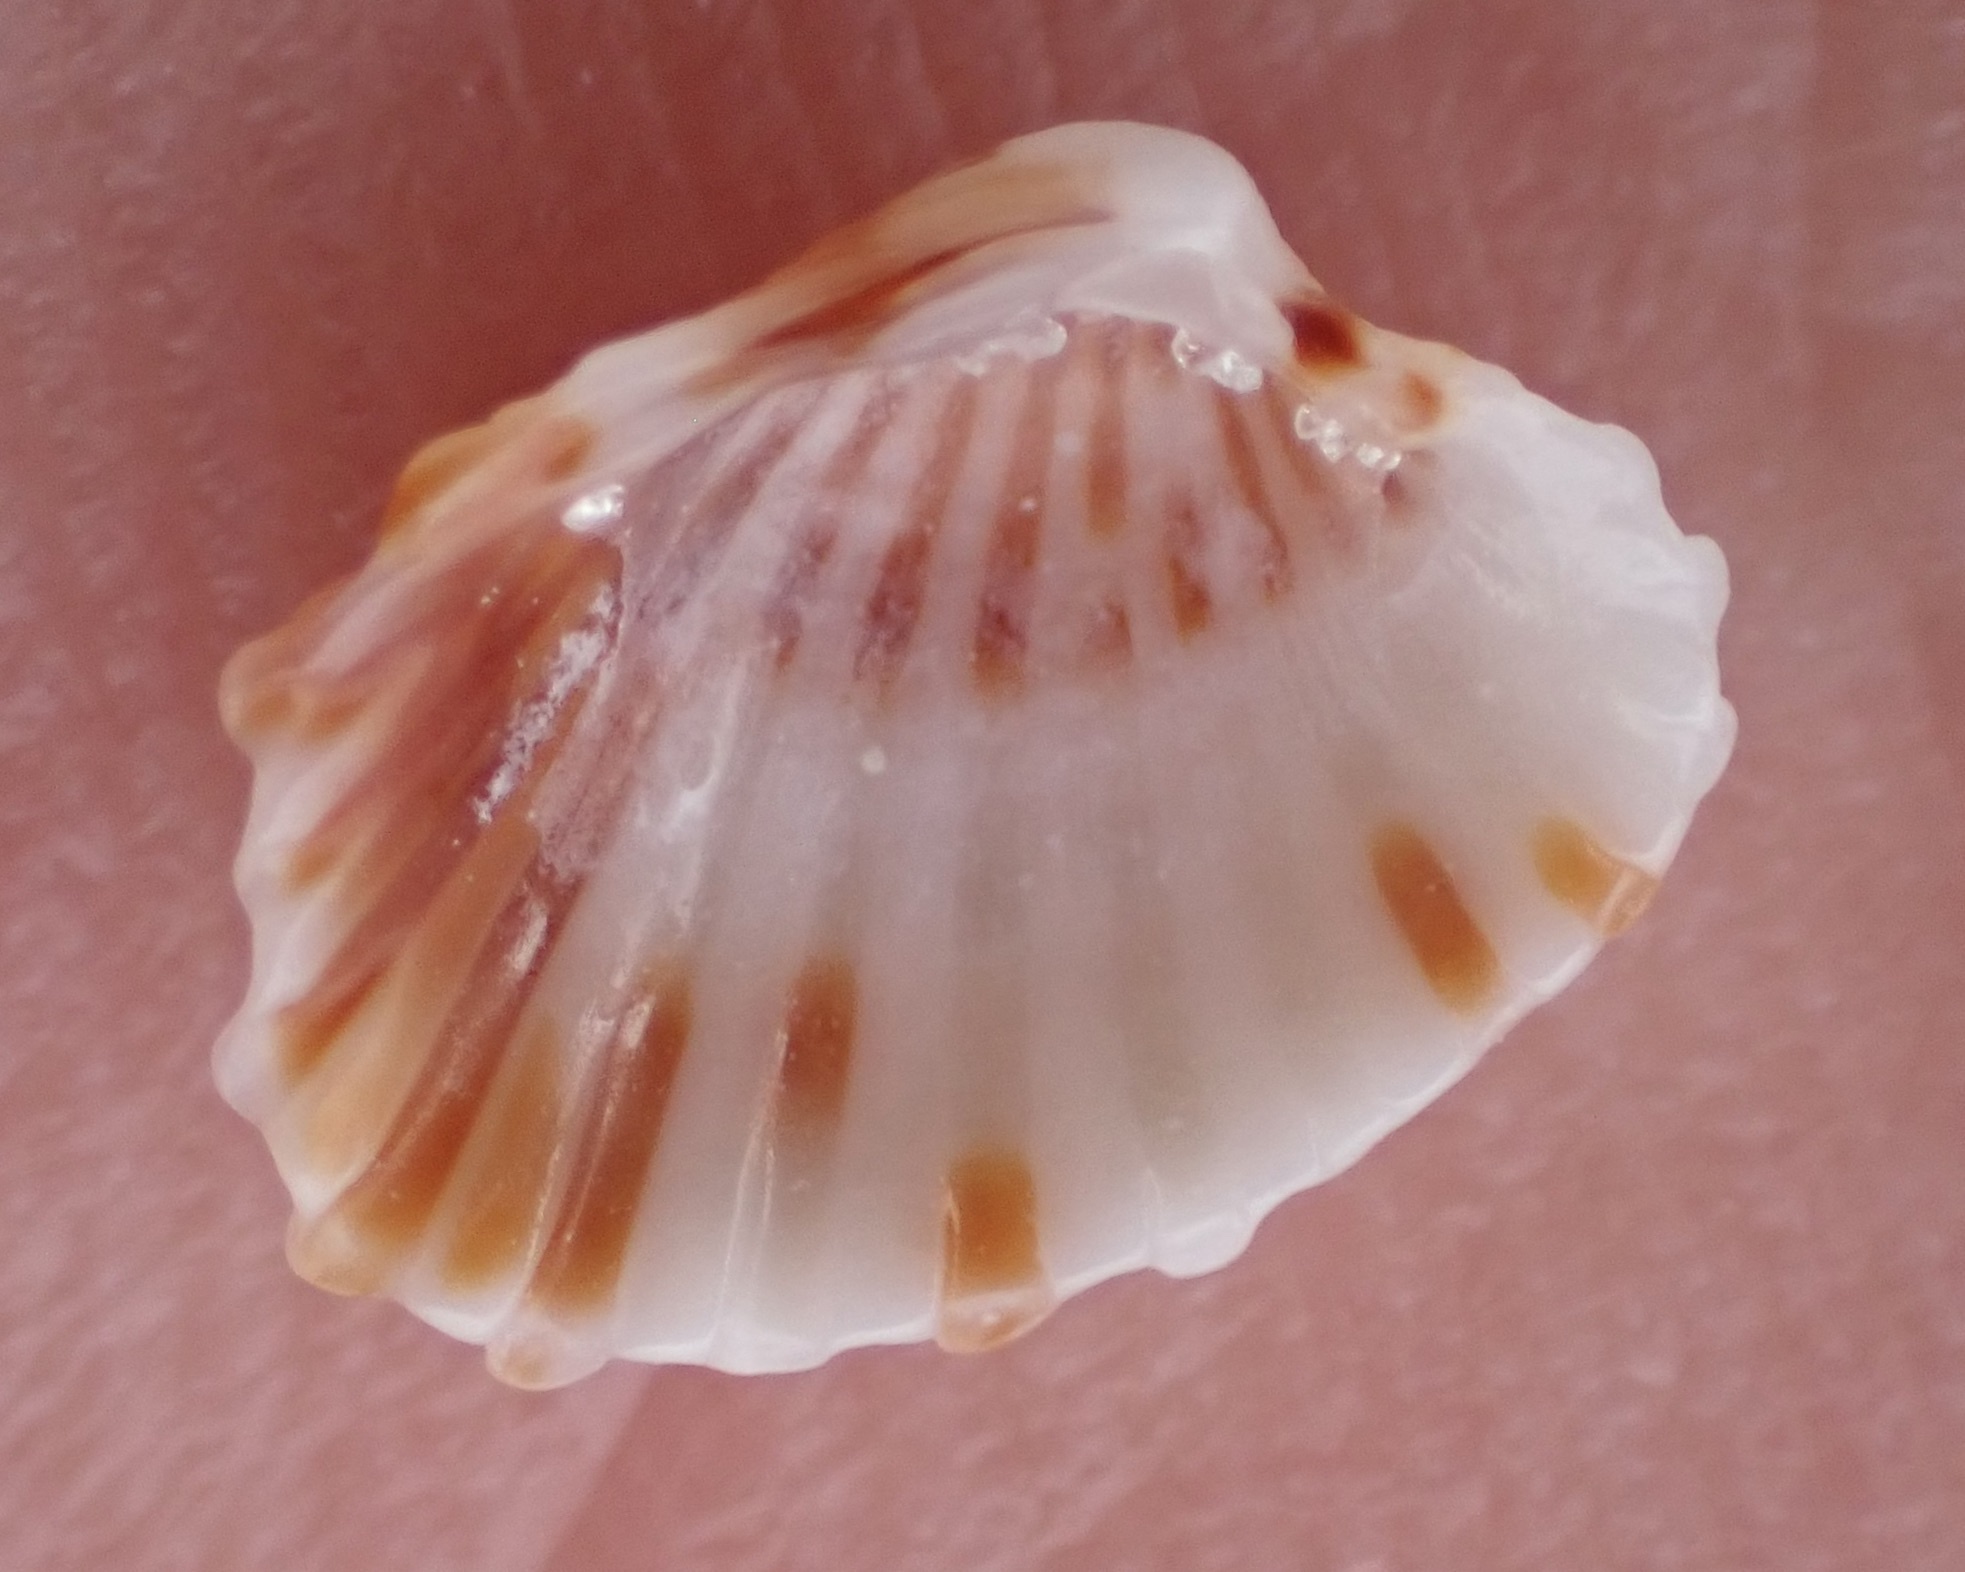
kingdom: Animalia
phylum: Mollusca
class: Bivalvia
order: Carditida
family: Carditidae
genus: Cardites
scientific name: Cardites floridanus
